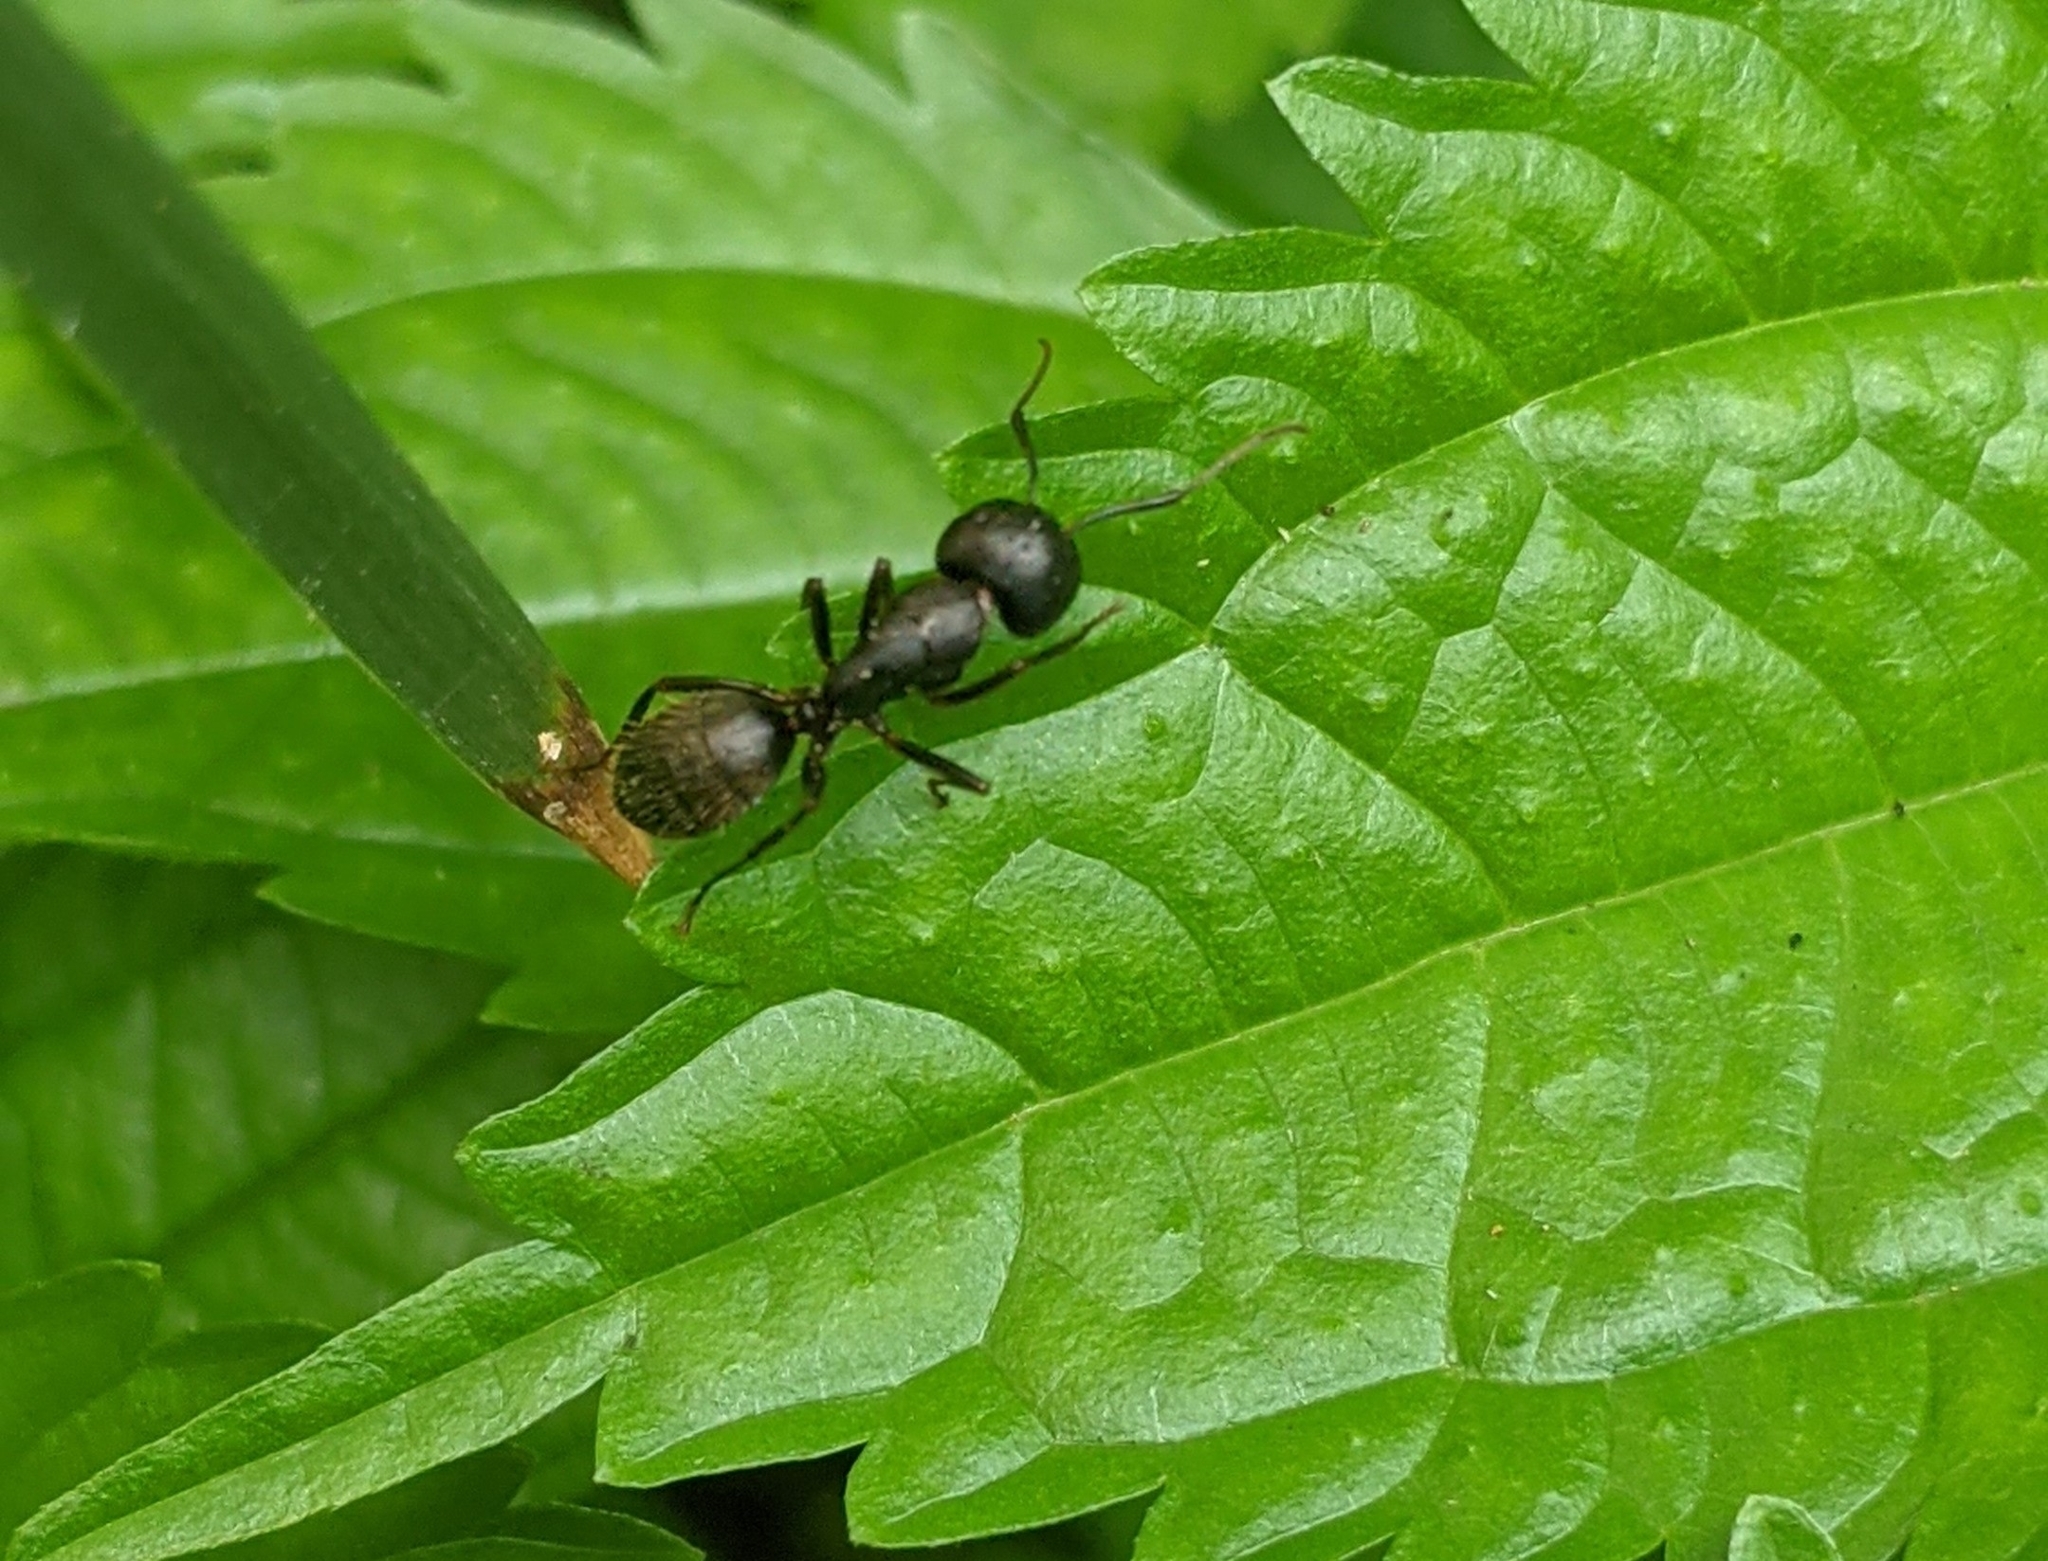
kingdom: Animalia
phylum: Arthropoda
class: Insecta
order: Hymenoptera
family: Formicidae
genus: Camponotus
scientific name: Camponotus pennsylvanicus
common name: Black carpenter ant
